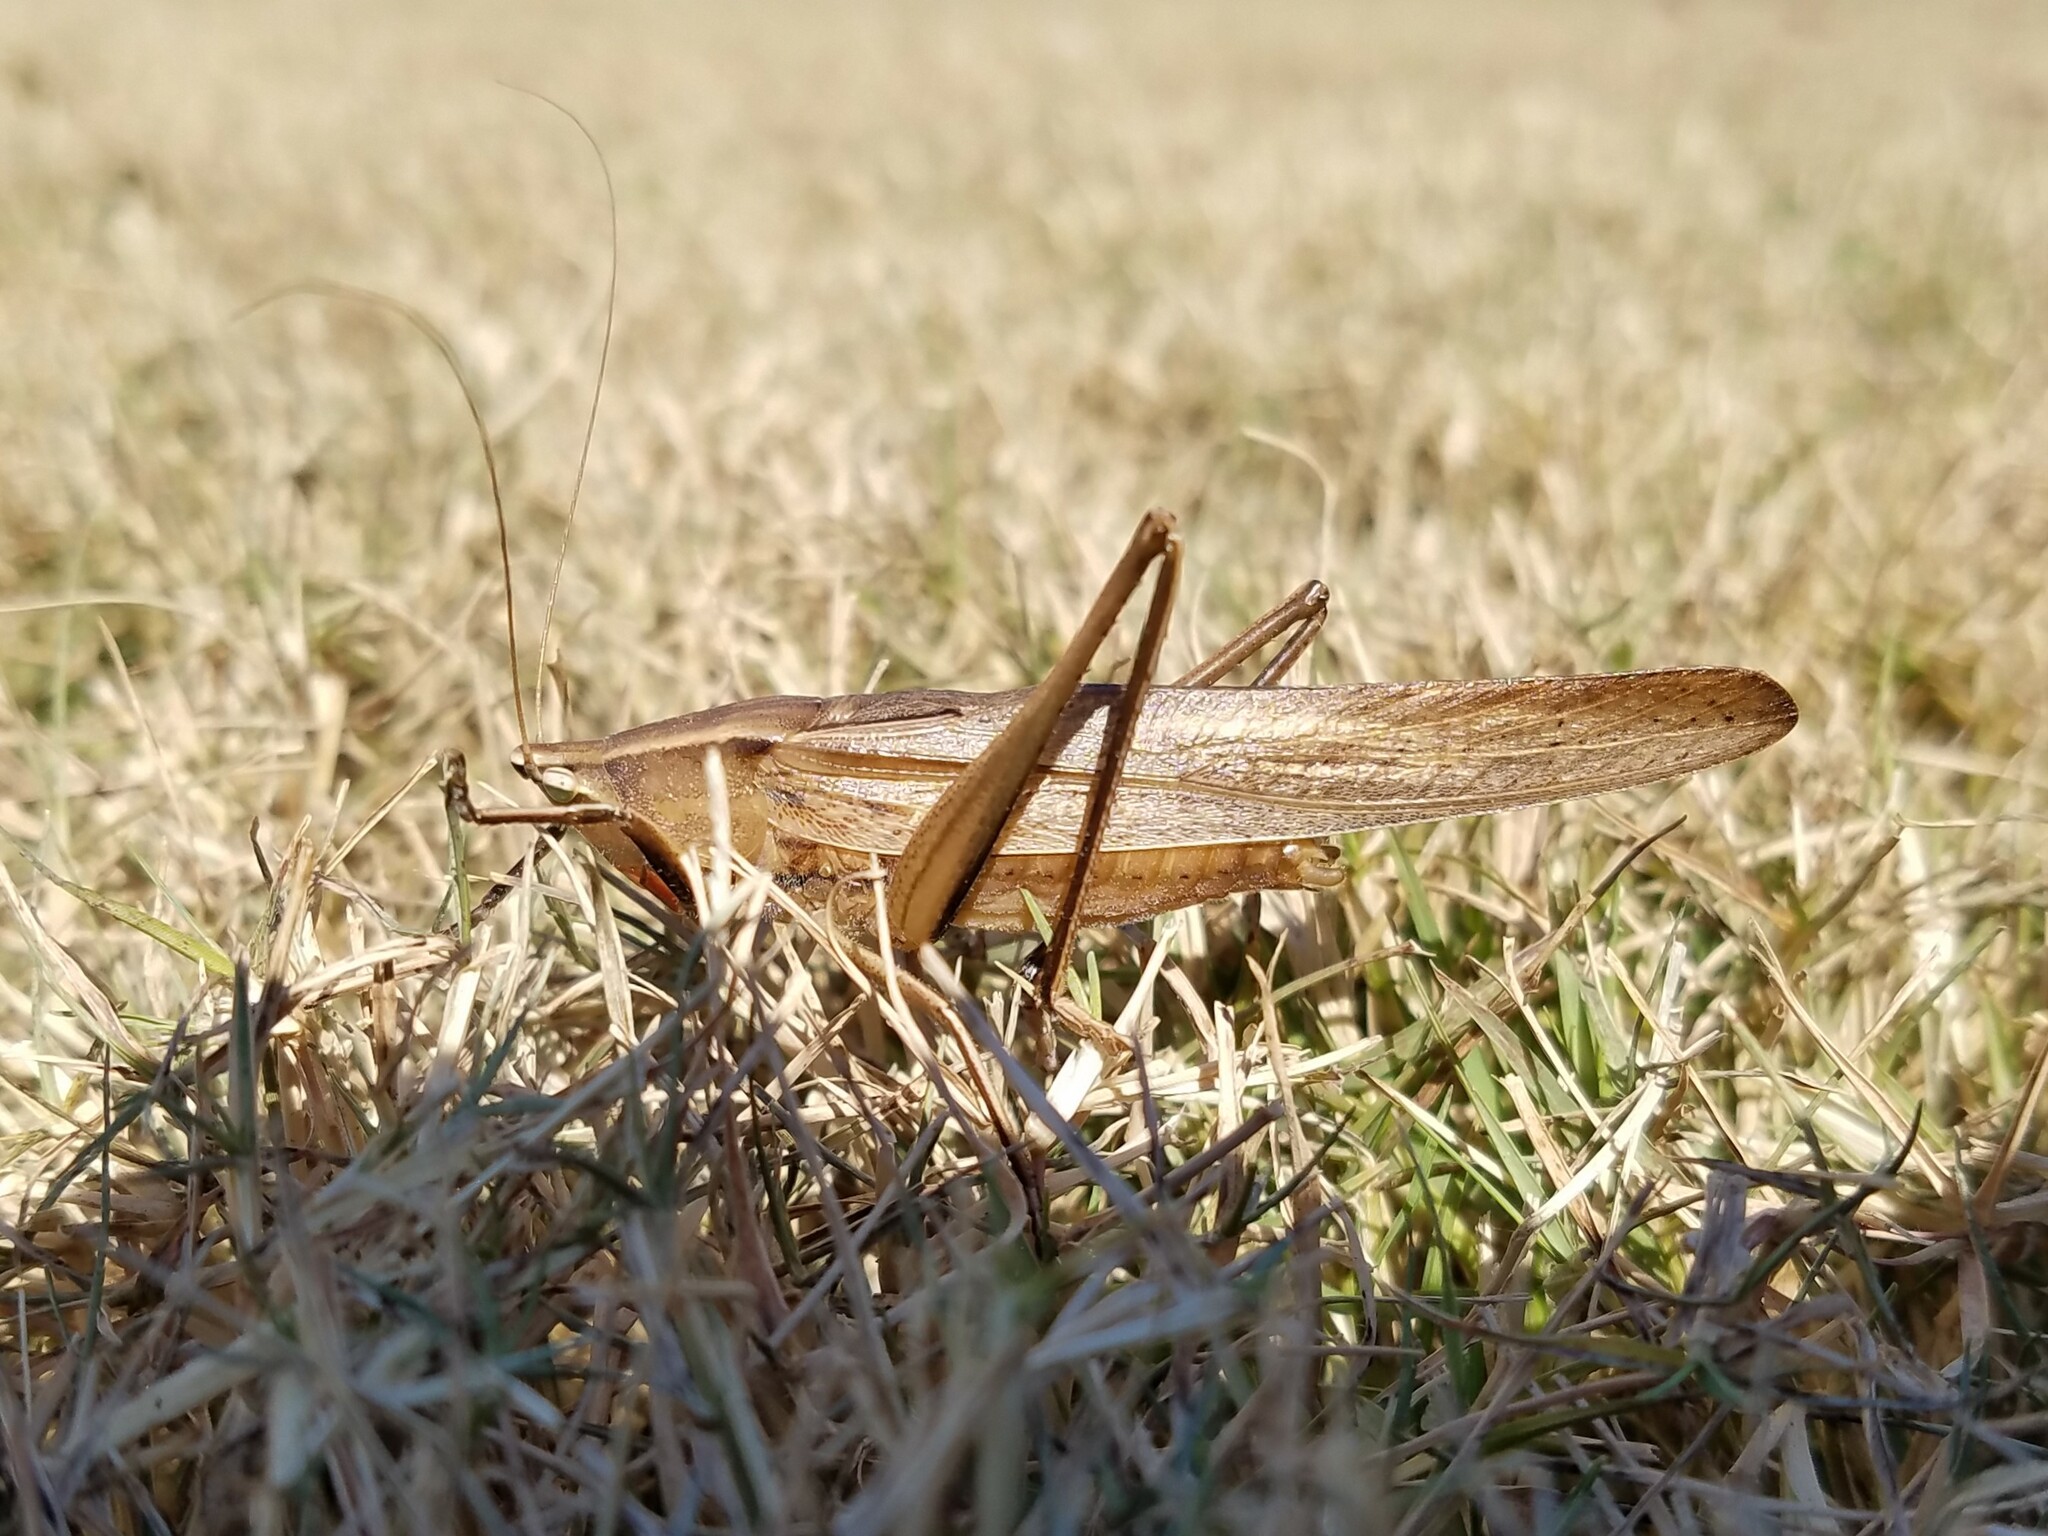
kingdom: Animalia
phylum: Arthropoda
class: Insecta
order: Orthoptera
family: Tettigoniidae
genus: Neoconocephalus
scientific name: Neoconocephalus triops
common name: Broad-tipped conehead
